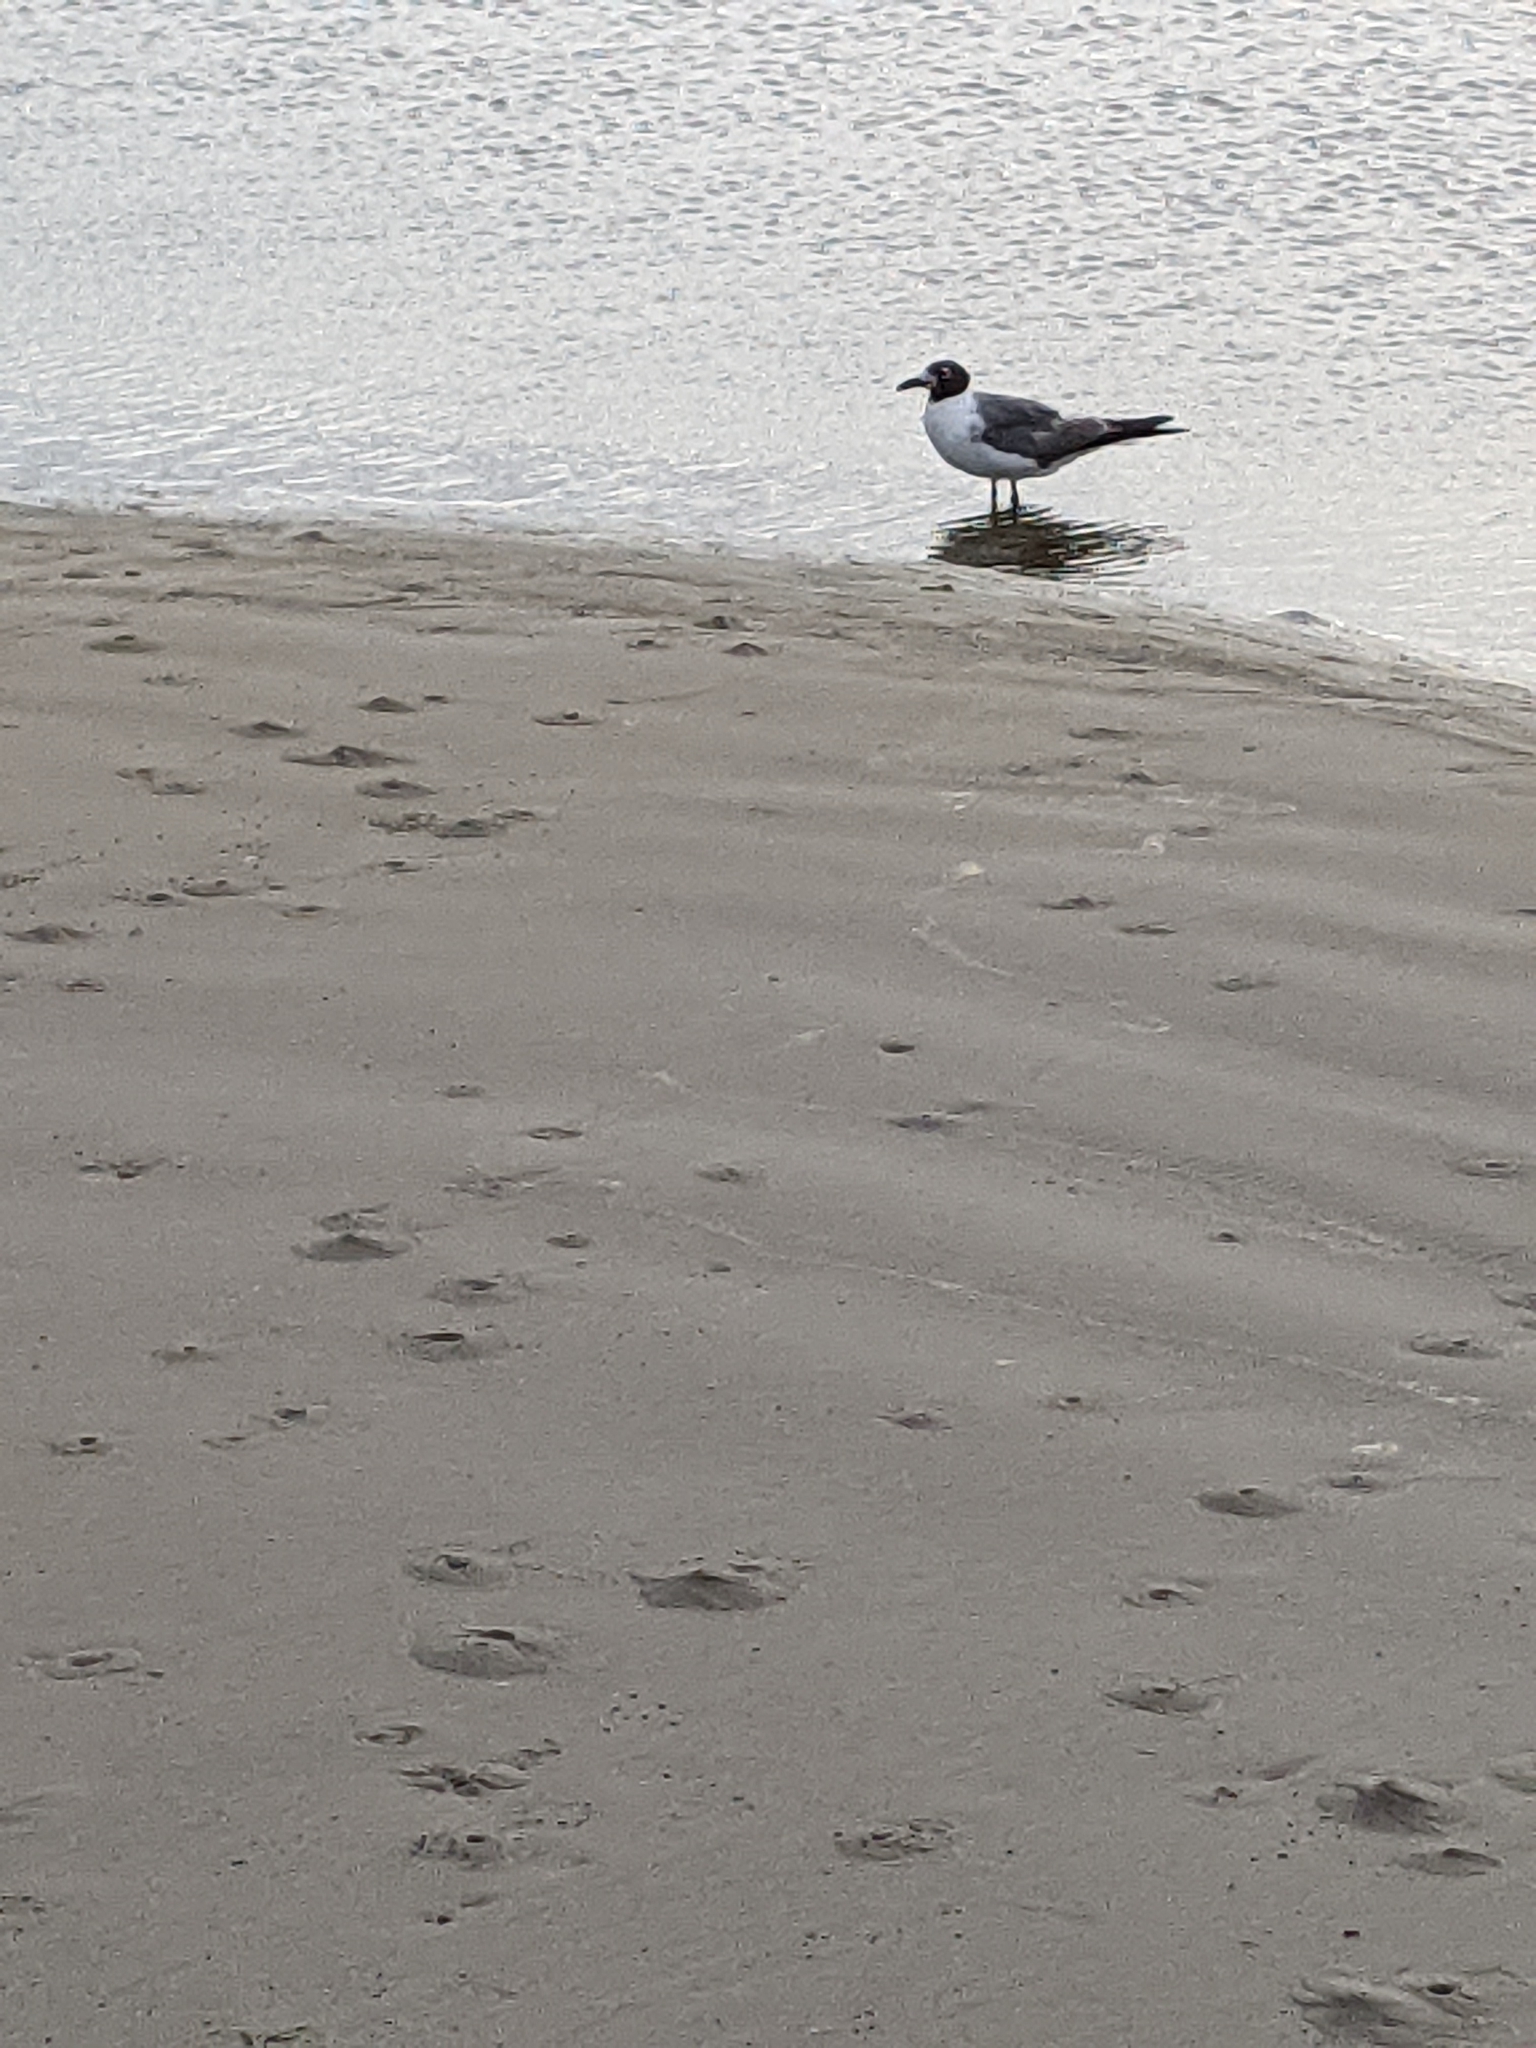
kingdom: Animalia
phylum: Chordata
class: Aves
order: Charadriiformes
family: Laridae
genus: Leucophaeus
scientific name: Leucophaeus atricilla
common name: Laughing gull
